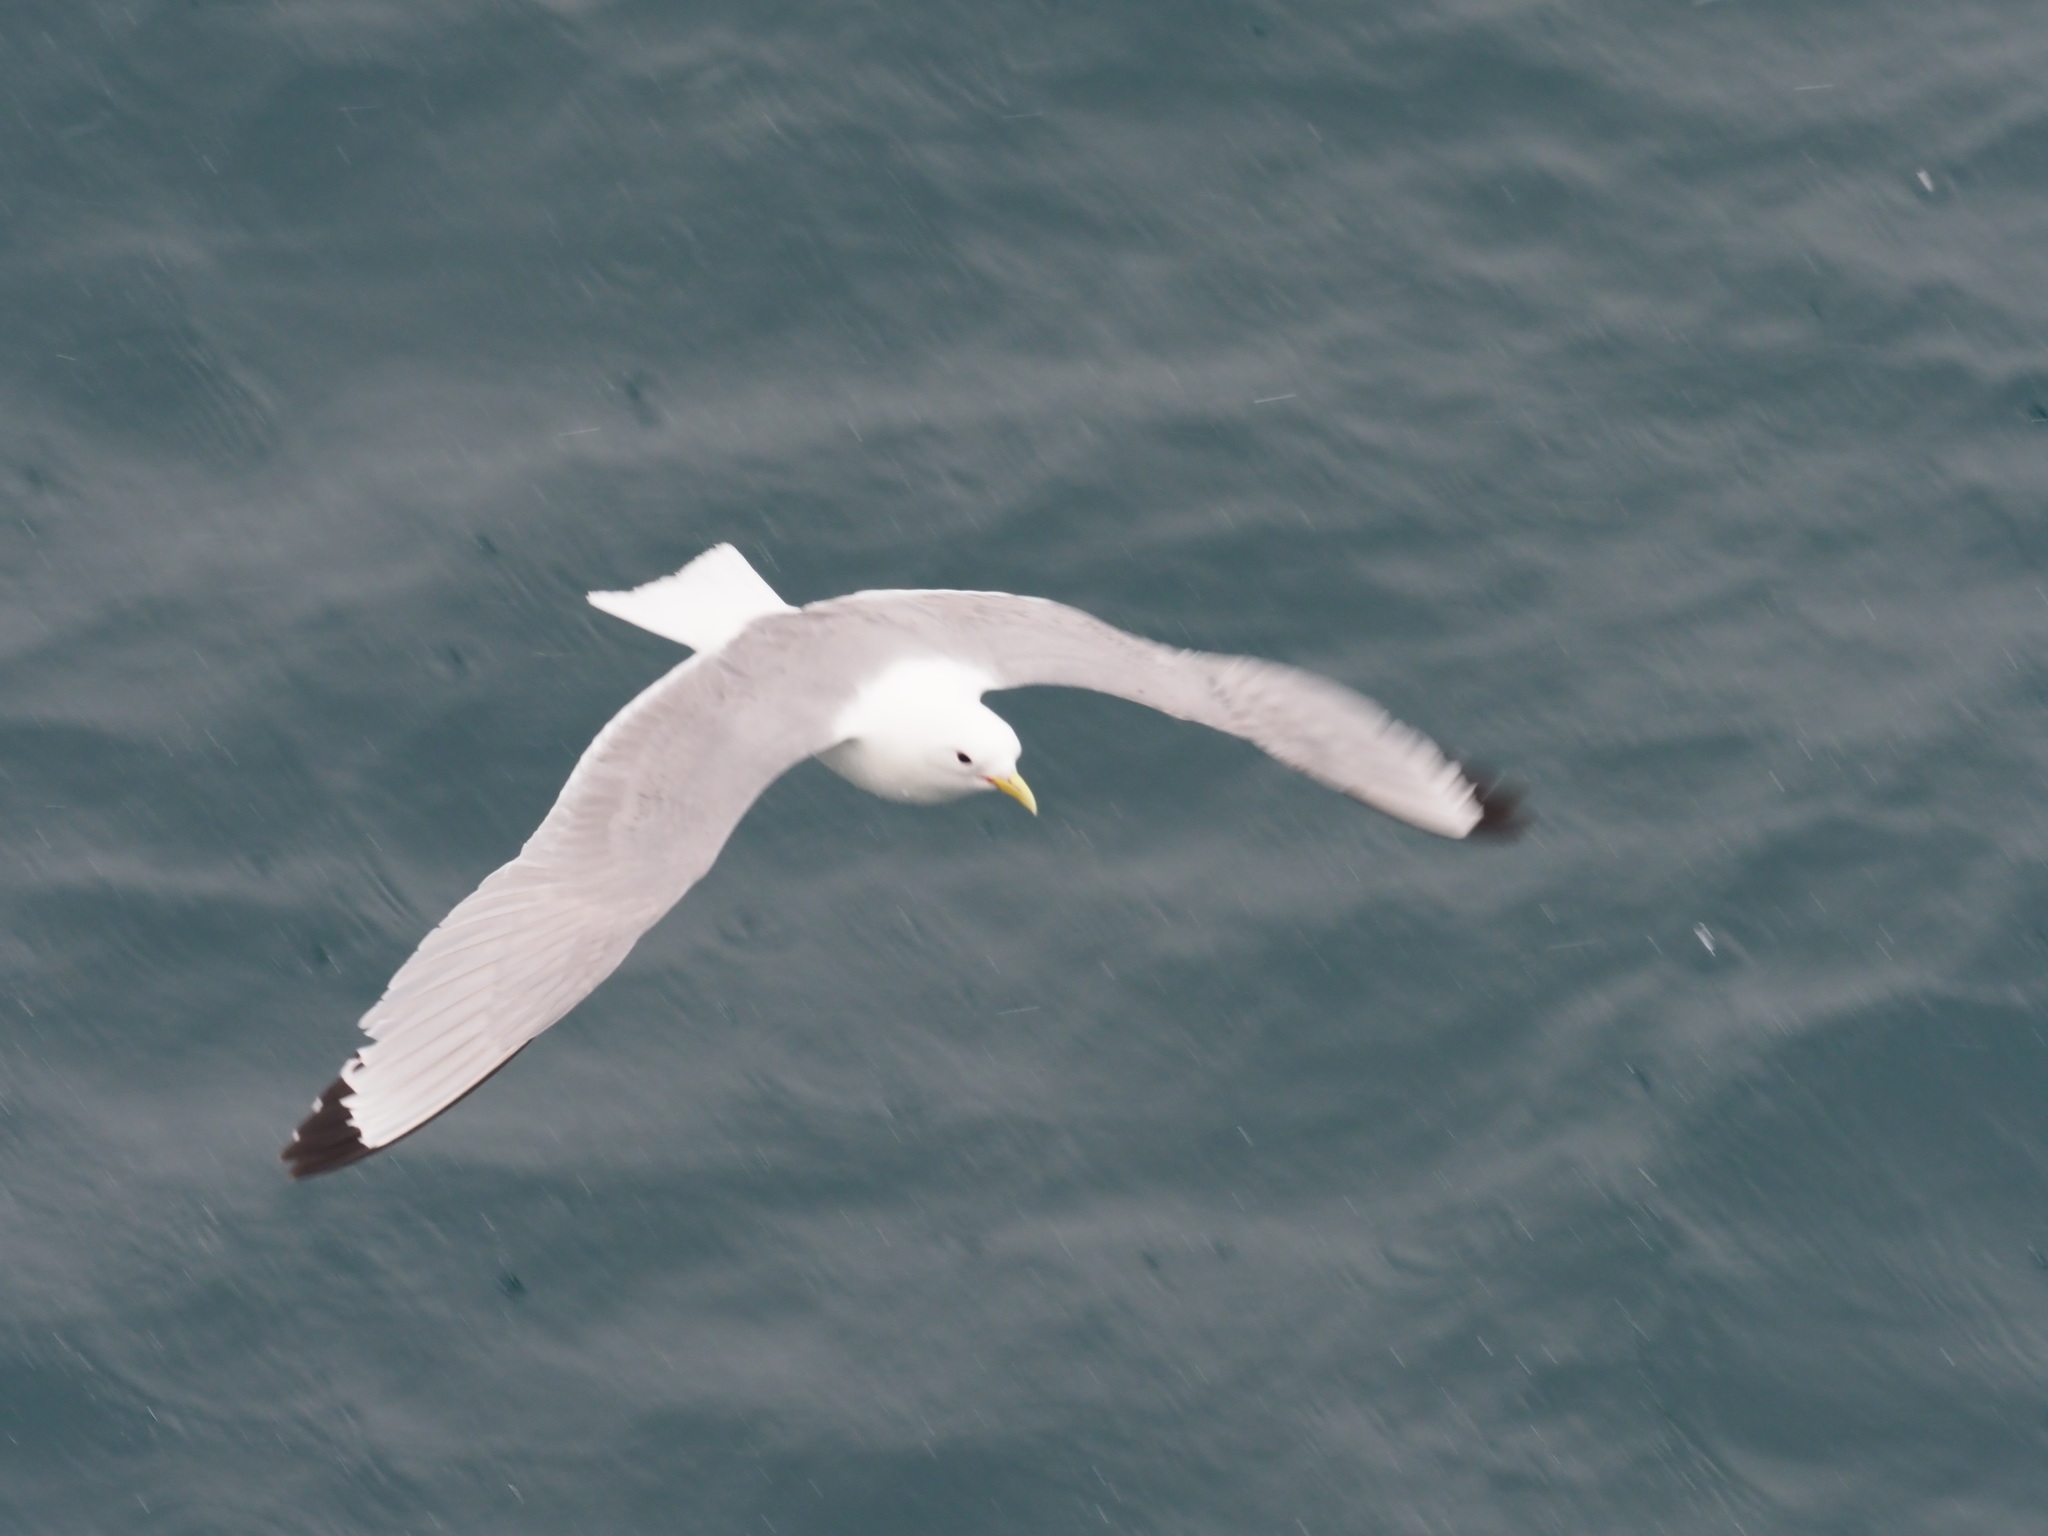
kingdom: Animalia
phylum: Chordata
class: Aves
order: Charadriiformes
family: Laridae
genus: Rissa
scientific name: Rissa tridactyla
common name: Black-legged kittiwake
